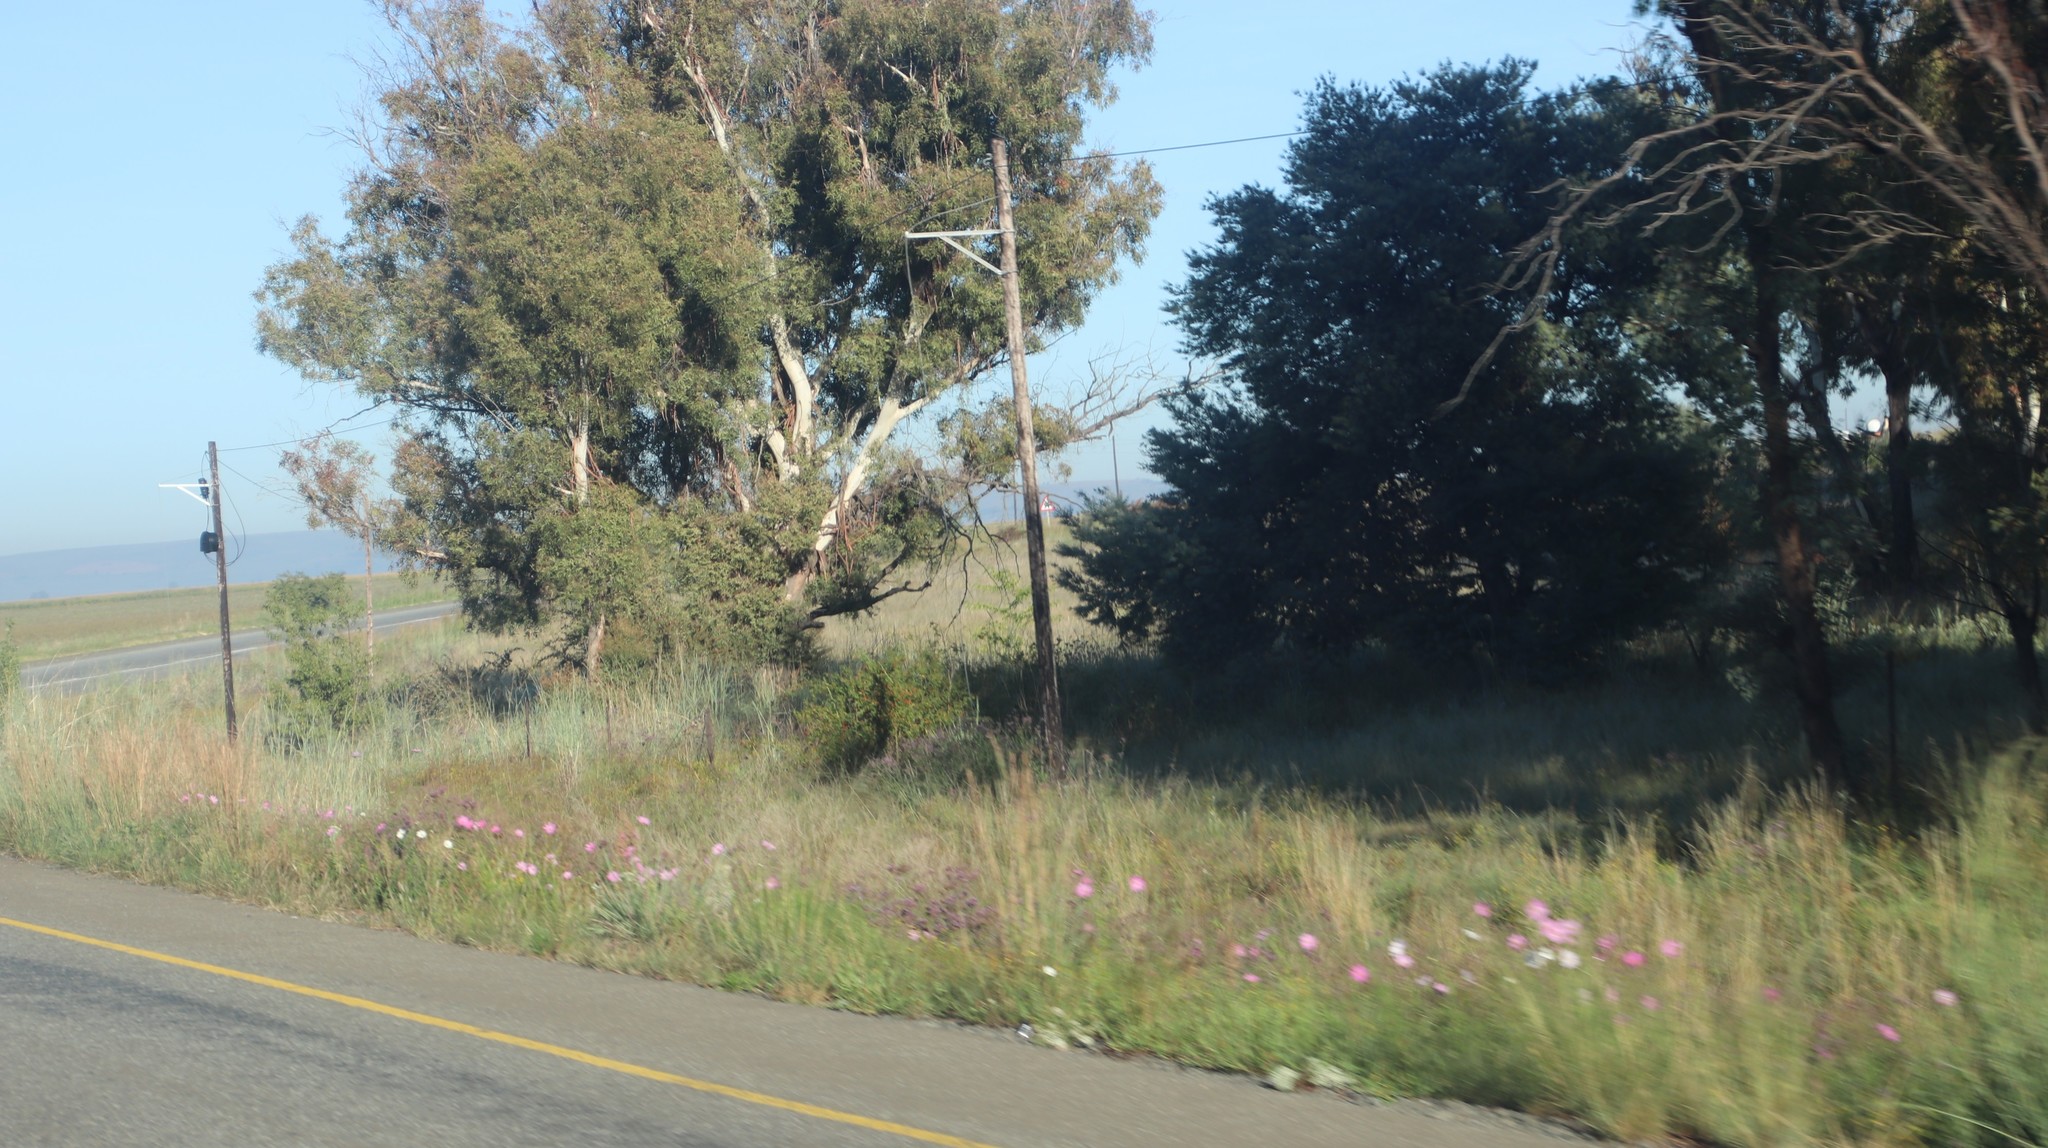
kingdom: Plantae
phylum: Tracheophyta
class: Magnoliopsida
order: Asterales
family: Asteraceae
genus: Cosmos
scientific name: Cosmos bipinnatus
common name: Garden cosmos
